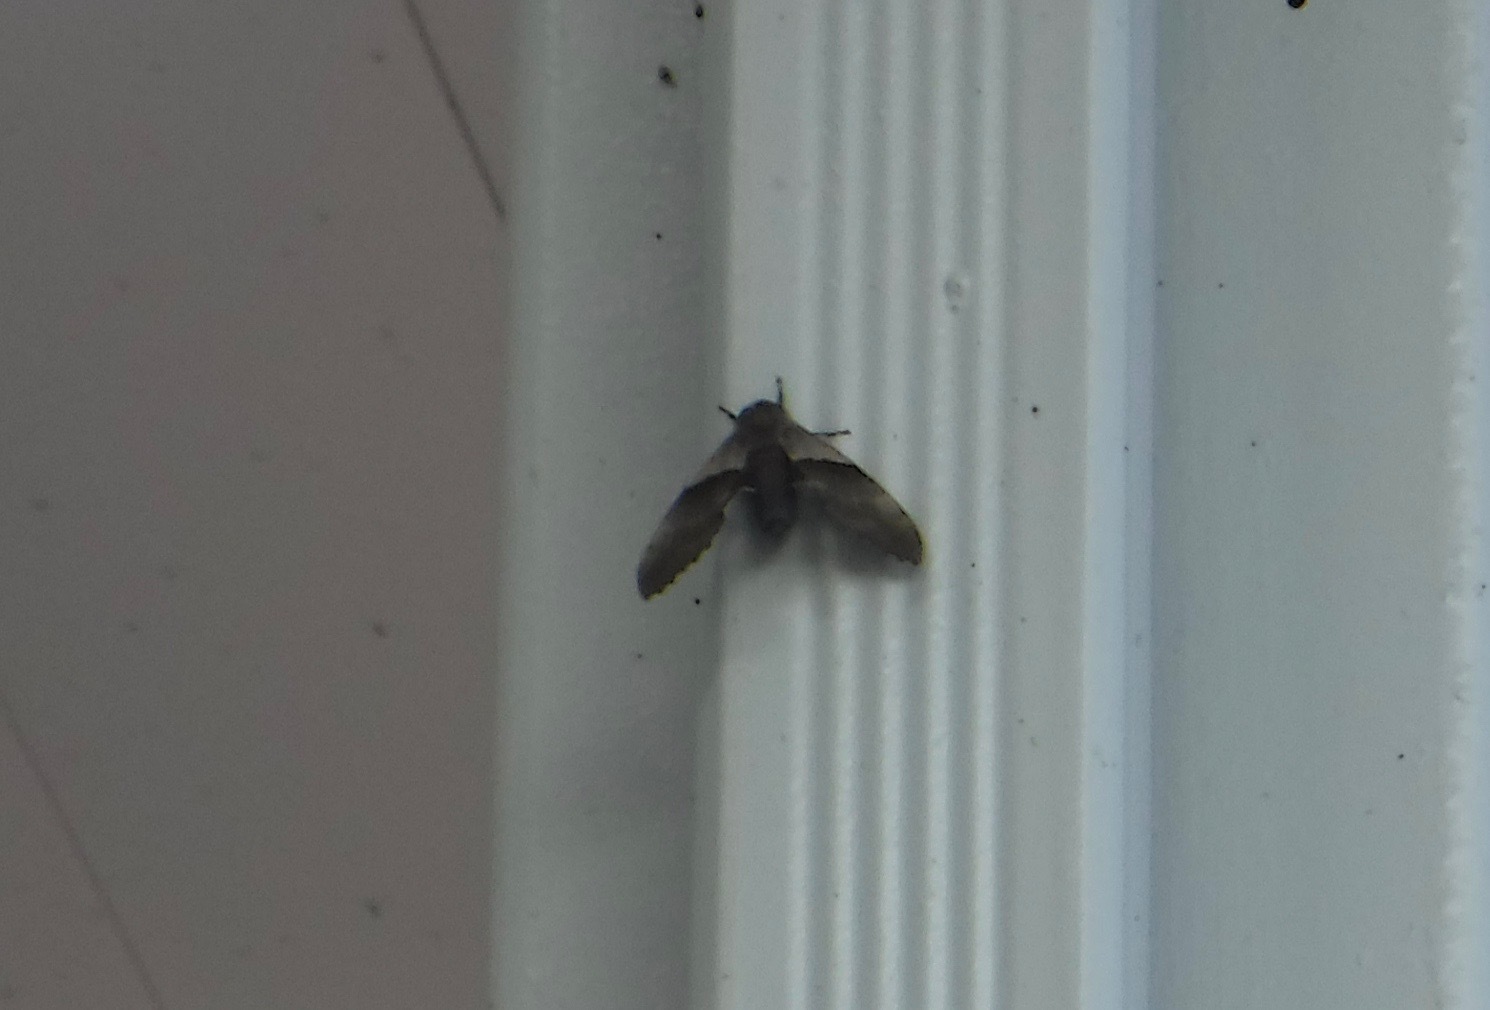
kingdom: Animalia
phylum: Arthropoda
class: Insecta
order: Lepidoptera
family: Sphingidae
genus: Pachysphinx
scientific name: Pachysphinx modesta
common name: Big poplar sphinx
